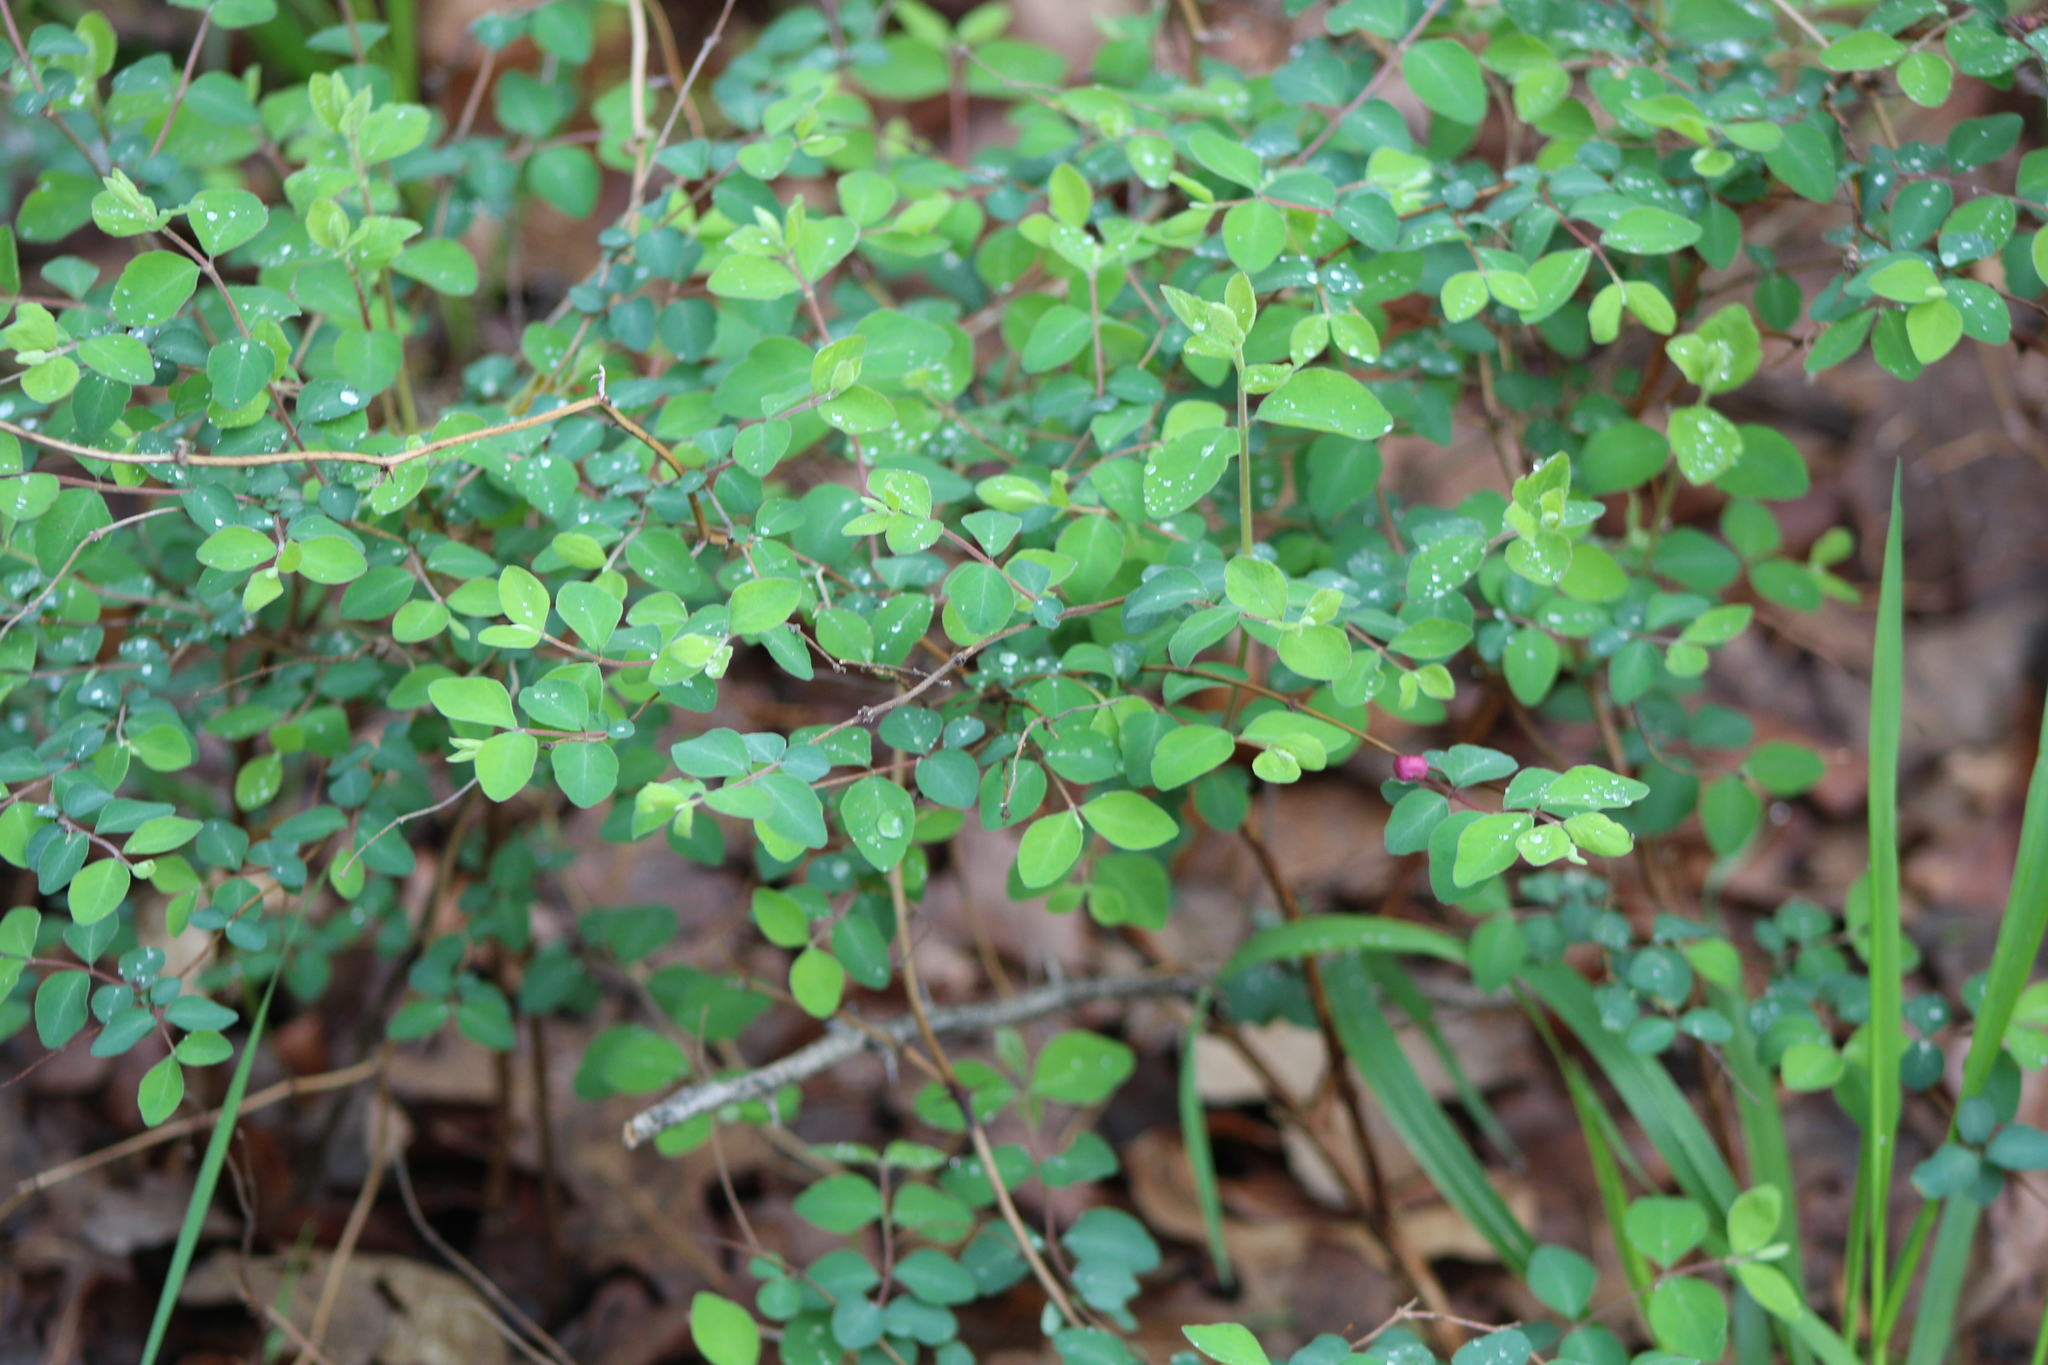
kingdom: Plantae
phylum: Tracheophyta
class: Magnoliopsida
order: Dipsacales
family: Caprifoliaceae
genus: Symphoricarpos
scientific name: Symphoricarpos orbiculatus
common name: Coralberry
